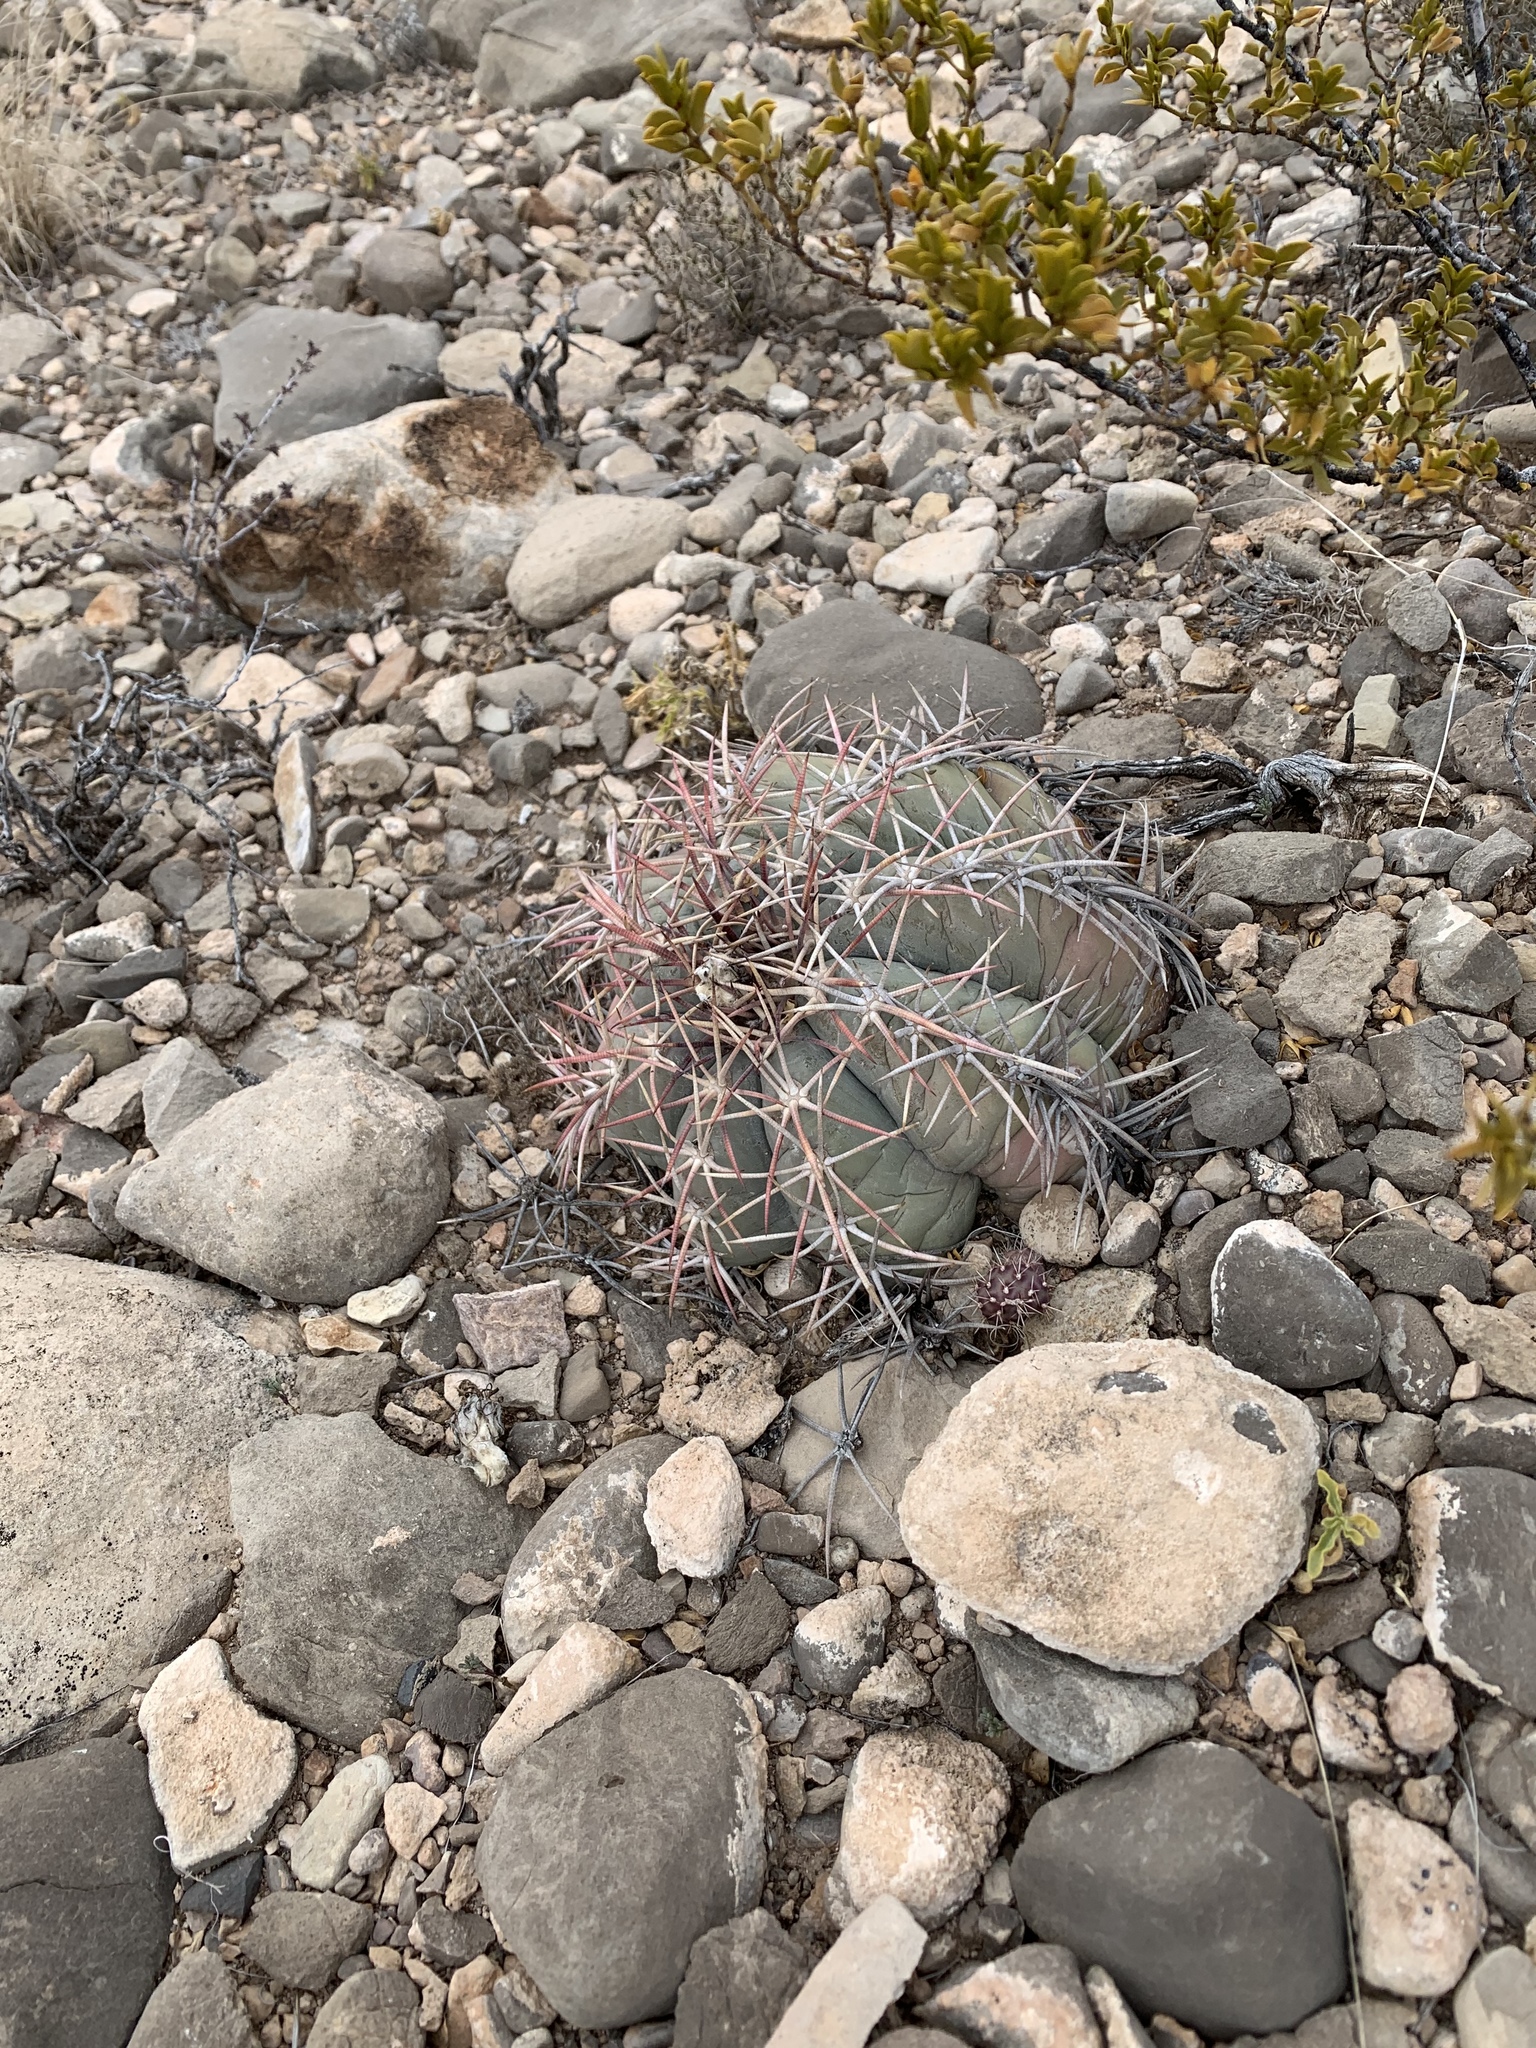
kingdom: Plantae
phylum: Tracheophyta
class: Magnoliopsida
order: Caryophyllales
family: Cactaceae
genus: Echinocactus
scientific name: Echinocactus horizonthalonius
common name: Devilshead
